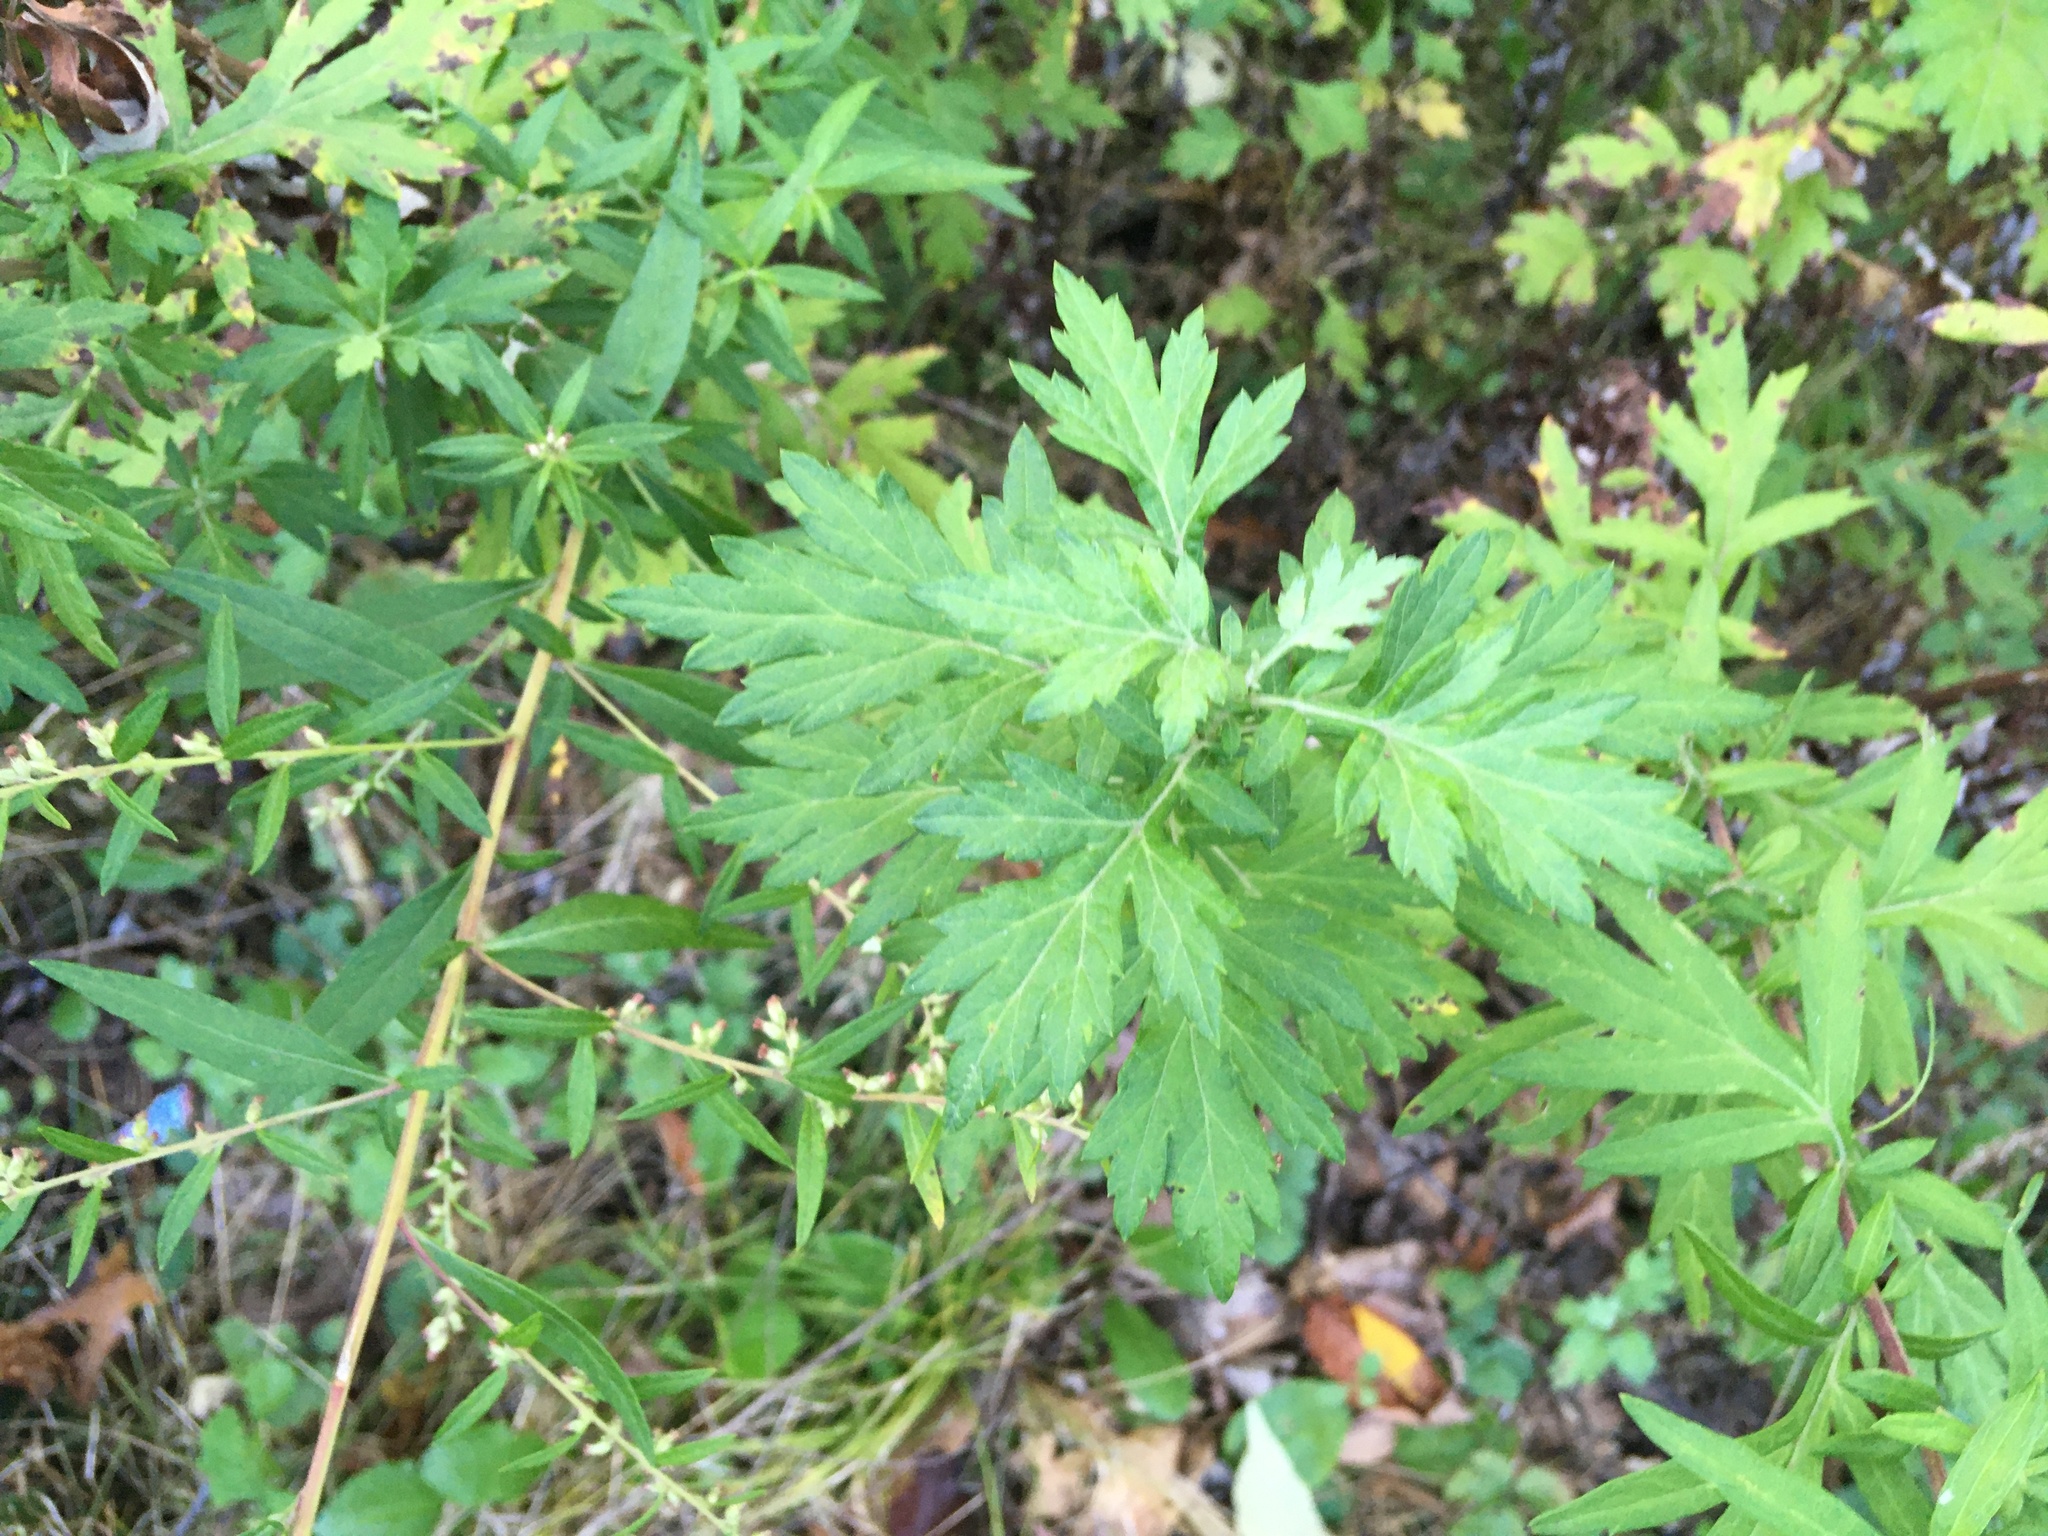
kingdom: Plantae
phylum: Tracheophyta
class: Magnoliopsida
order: Asterales
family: Asteraceae
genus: Artemisia
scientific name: Artemisia vulgaris
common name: Mugwort
